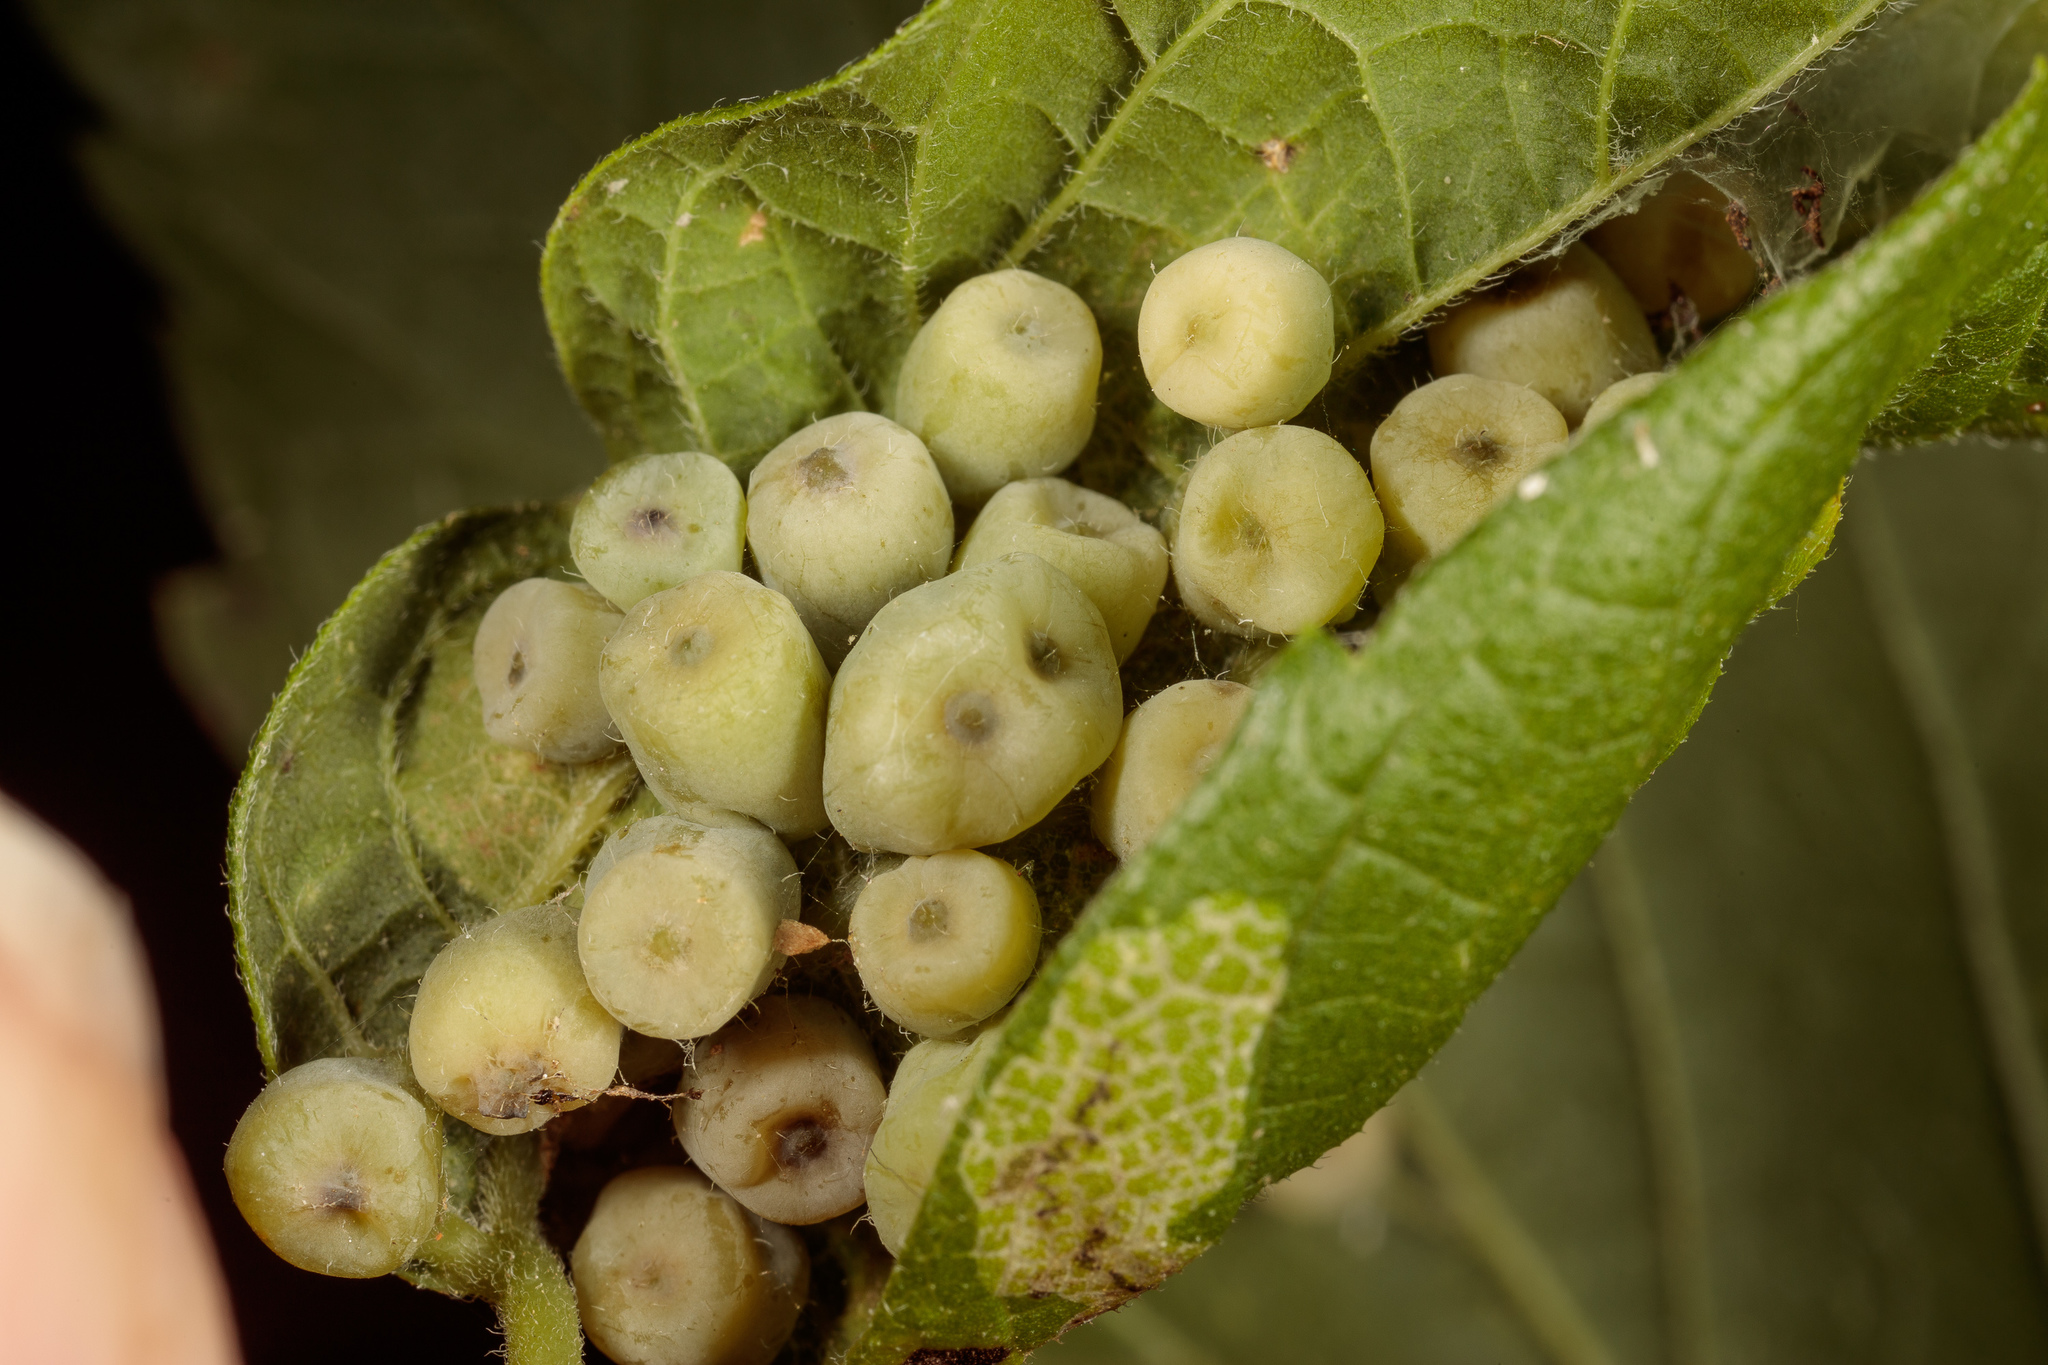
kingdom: Animalia
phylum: Arthropoda
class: Insecta
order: Hemiptera
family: Aphalaridae
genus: Pachypsylla
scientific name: Pachypsylla celtidismamma
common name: Hackberry nipplegall psyllid
